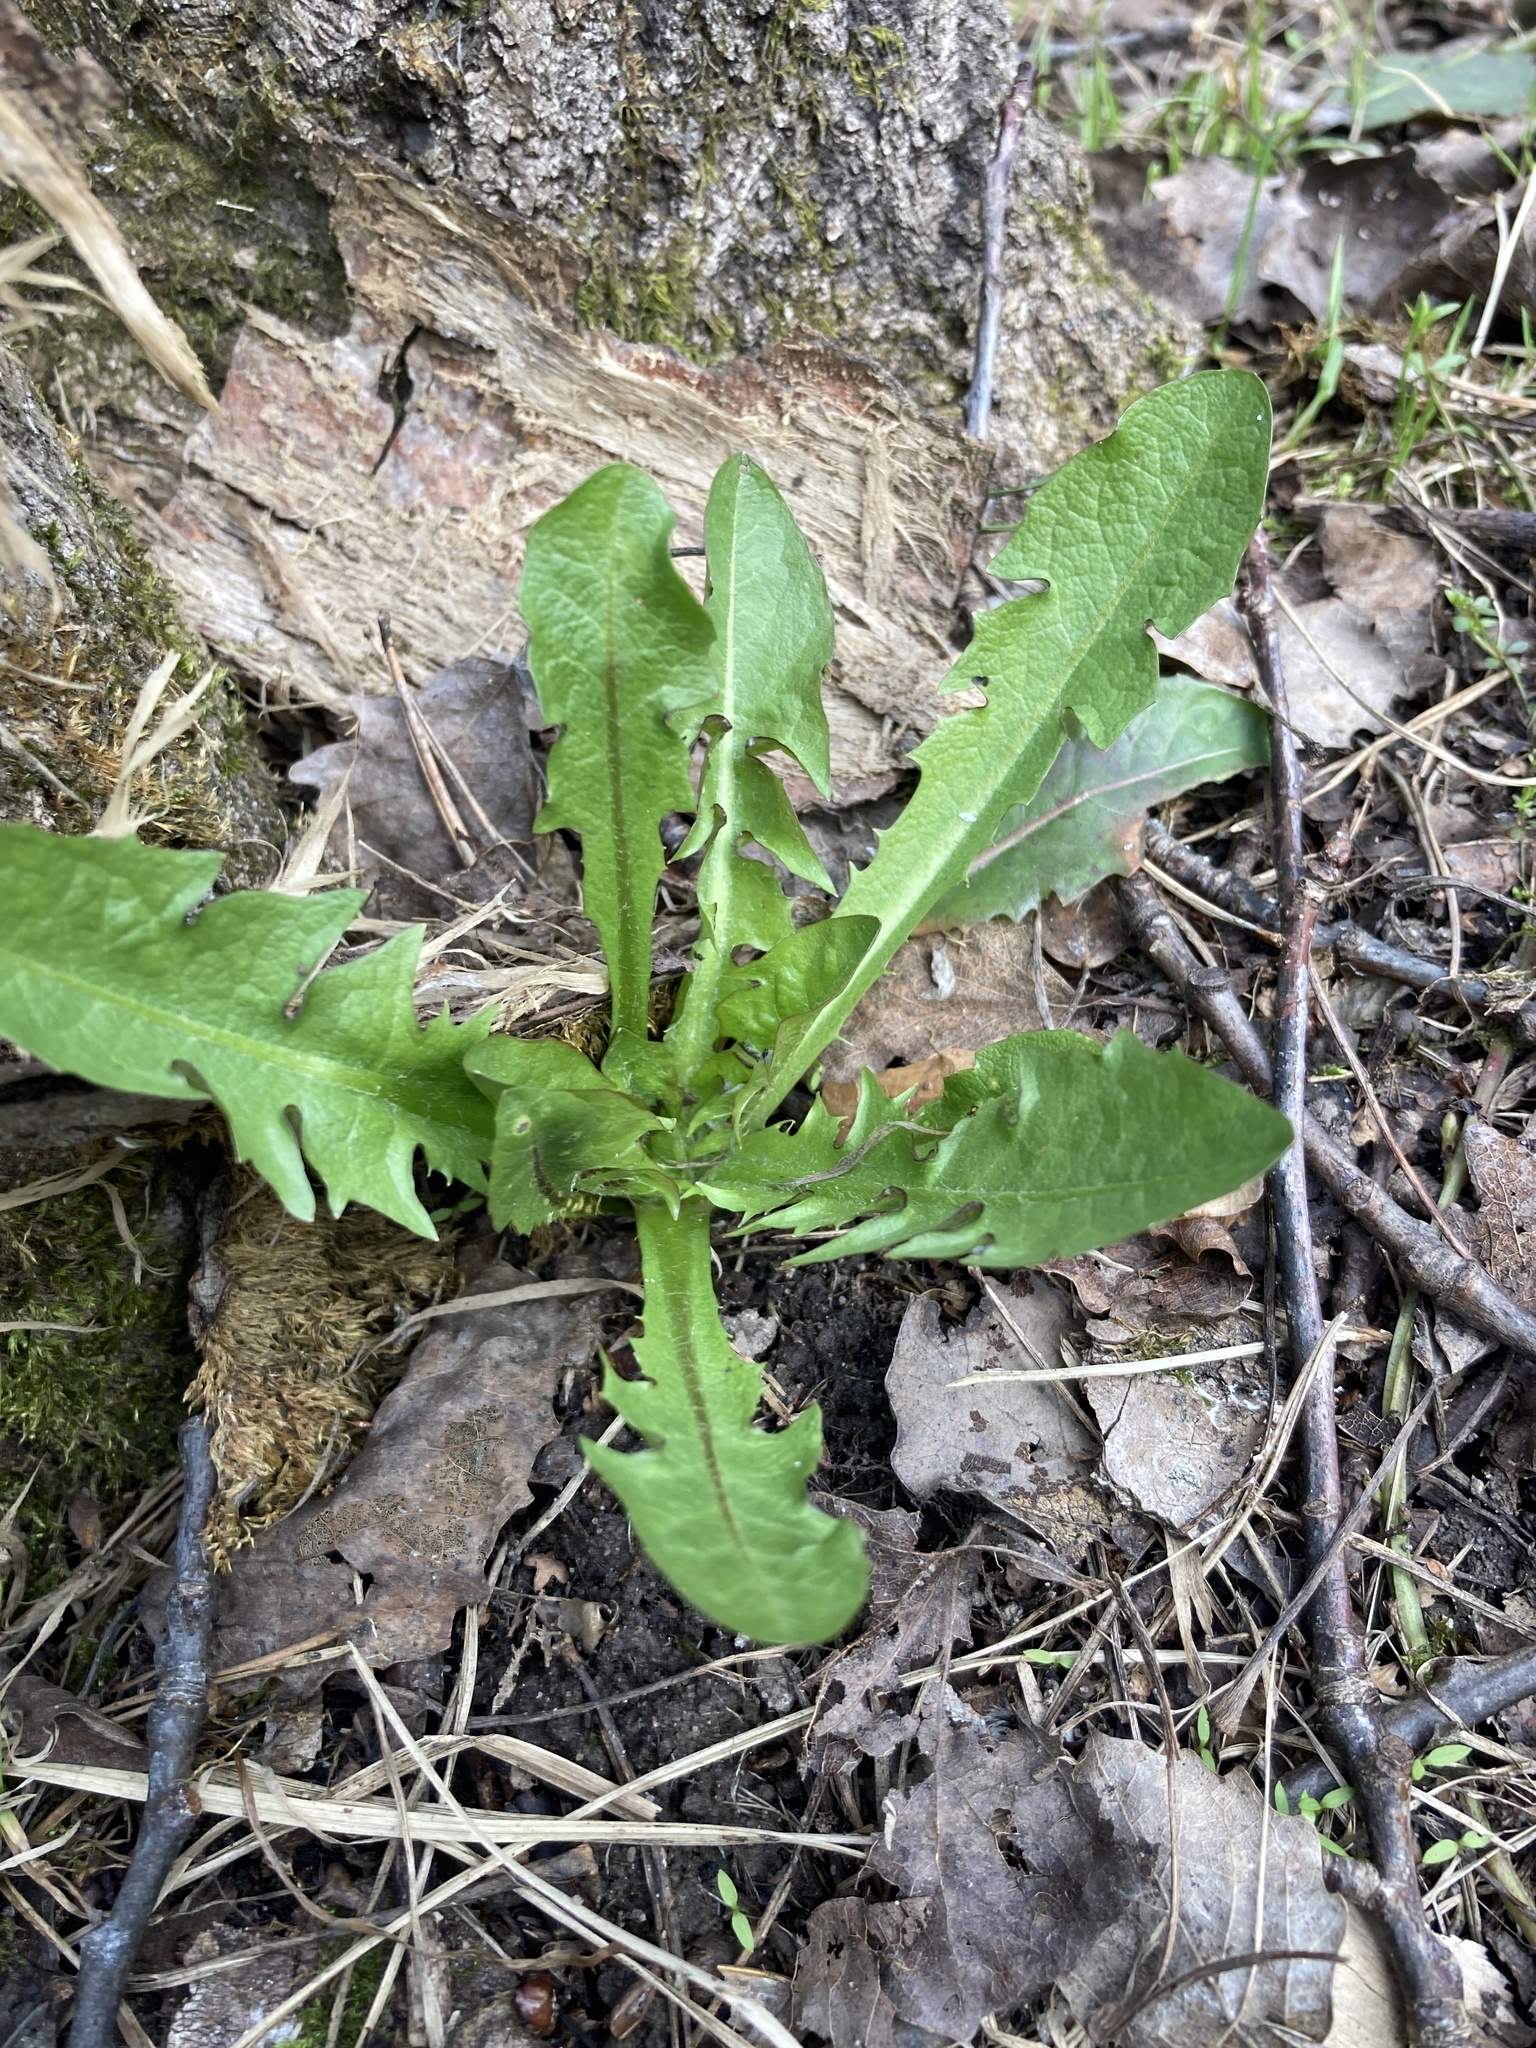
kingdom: Plantae
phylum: Tracheophyta
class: Magnoliopsida
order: Asterales
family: Asteraceae
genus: Taraxacum
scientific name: Taraxacum officinale
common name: Common dandelion
